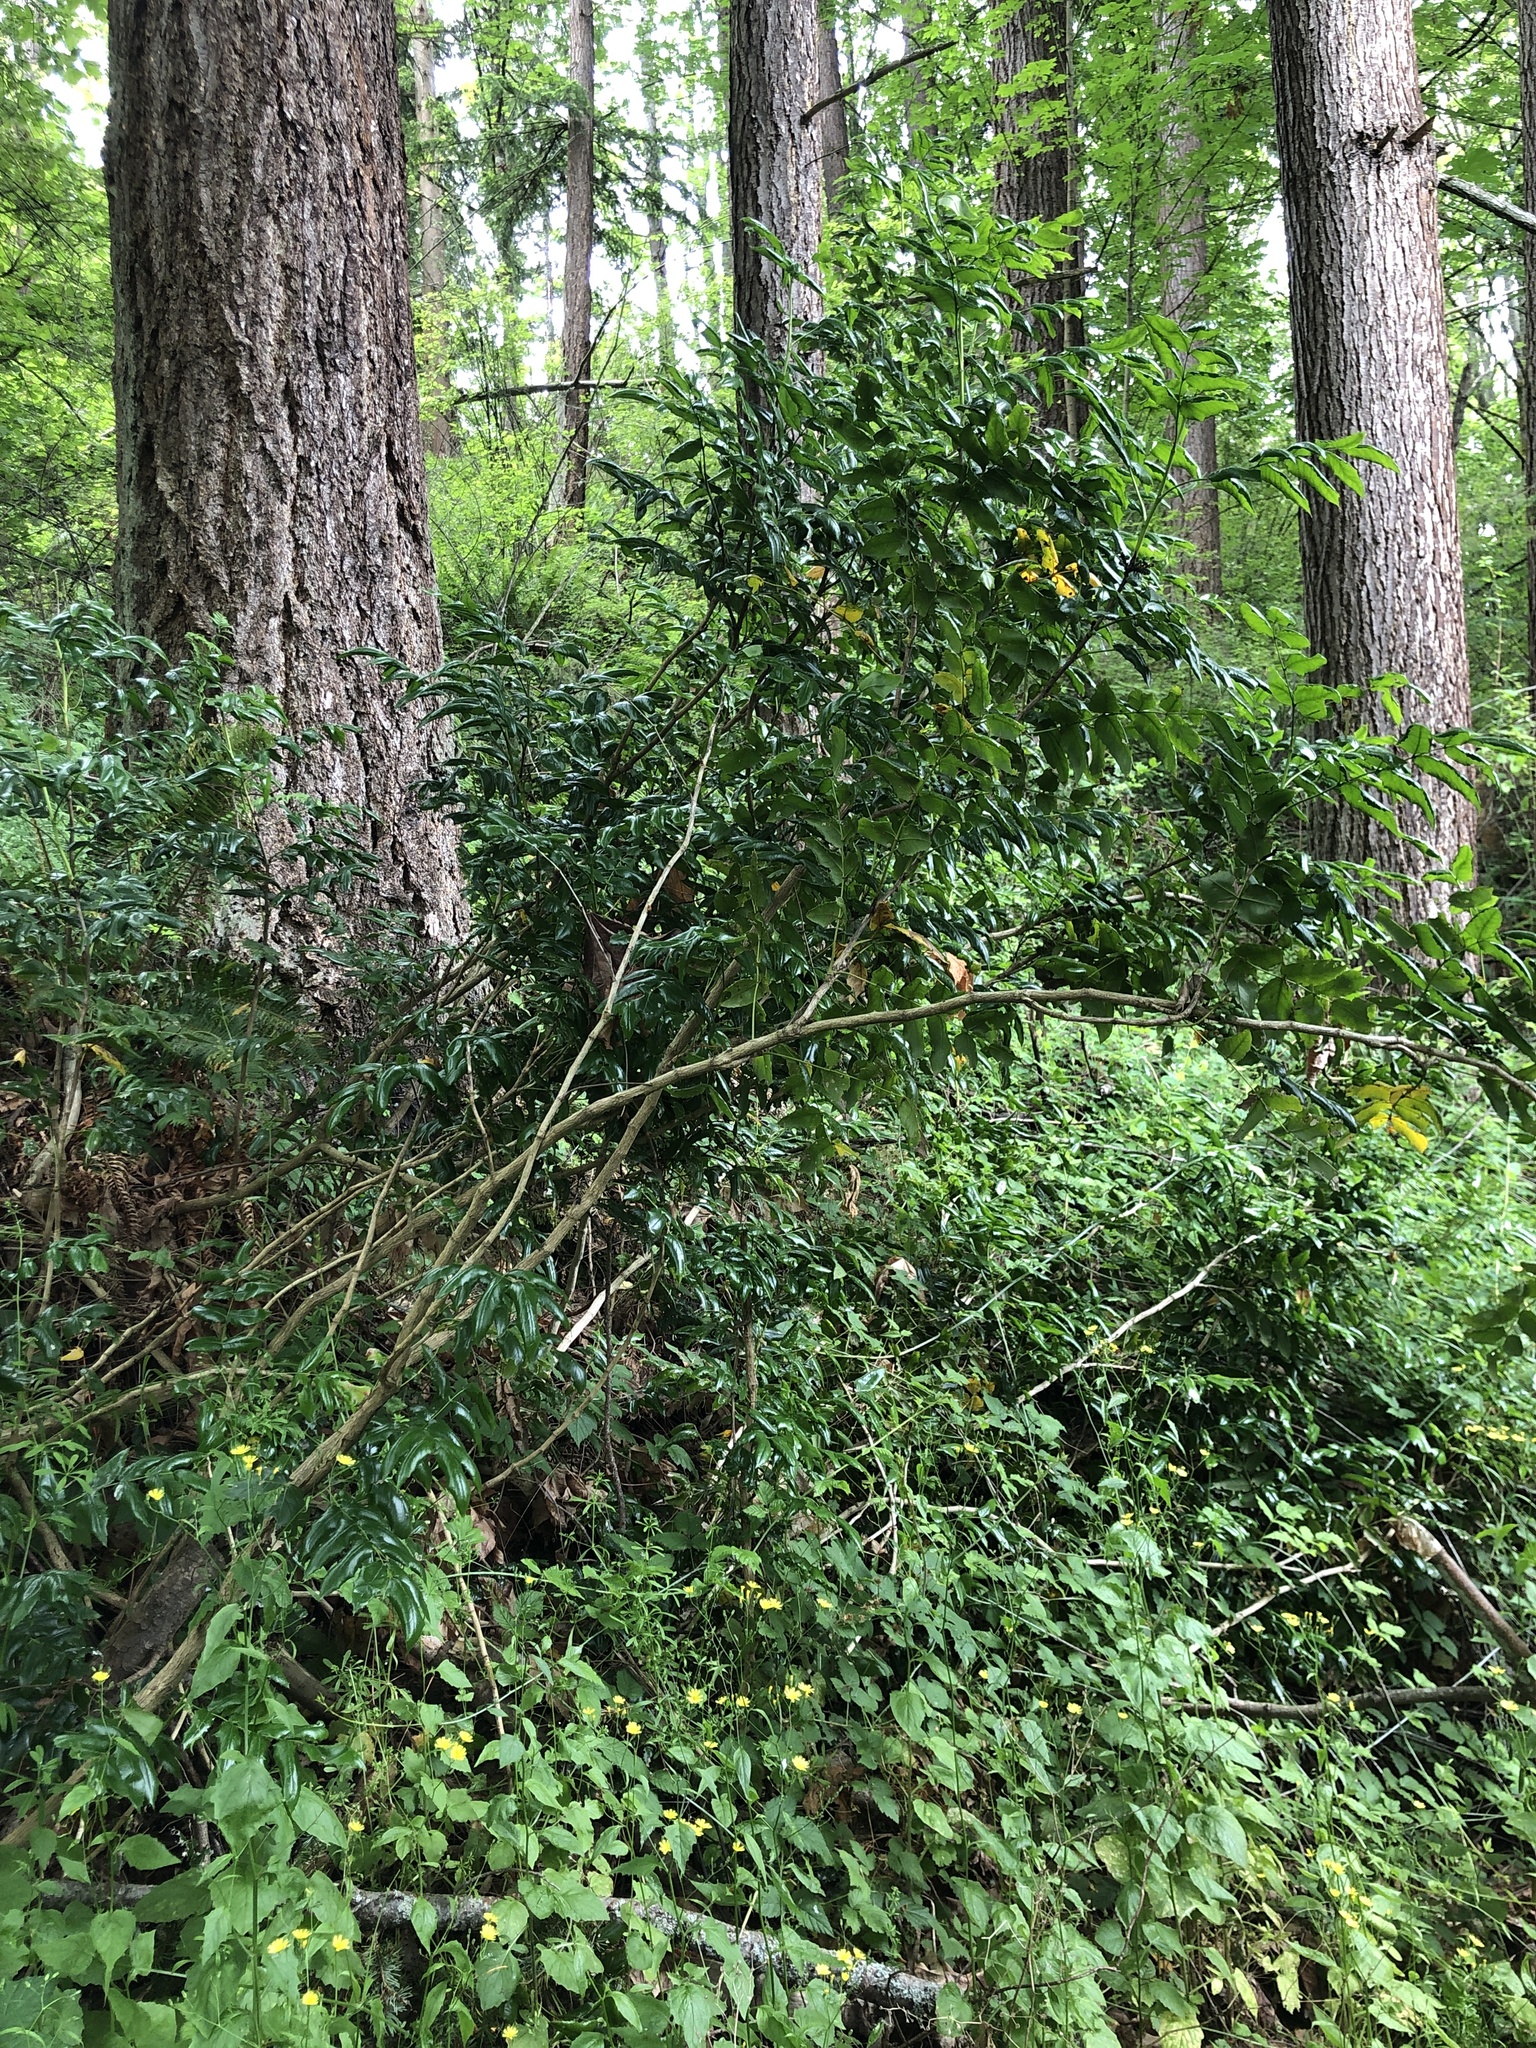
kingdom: Plantae
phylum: Tracheophyta
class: Magnoliopsida
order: Ranunculales
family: Berberidaceae
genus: Mahonia
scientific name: Mahonia aquifolium
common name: Oregon-grape
